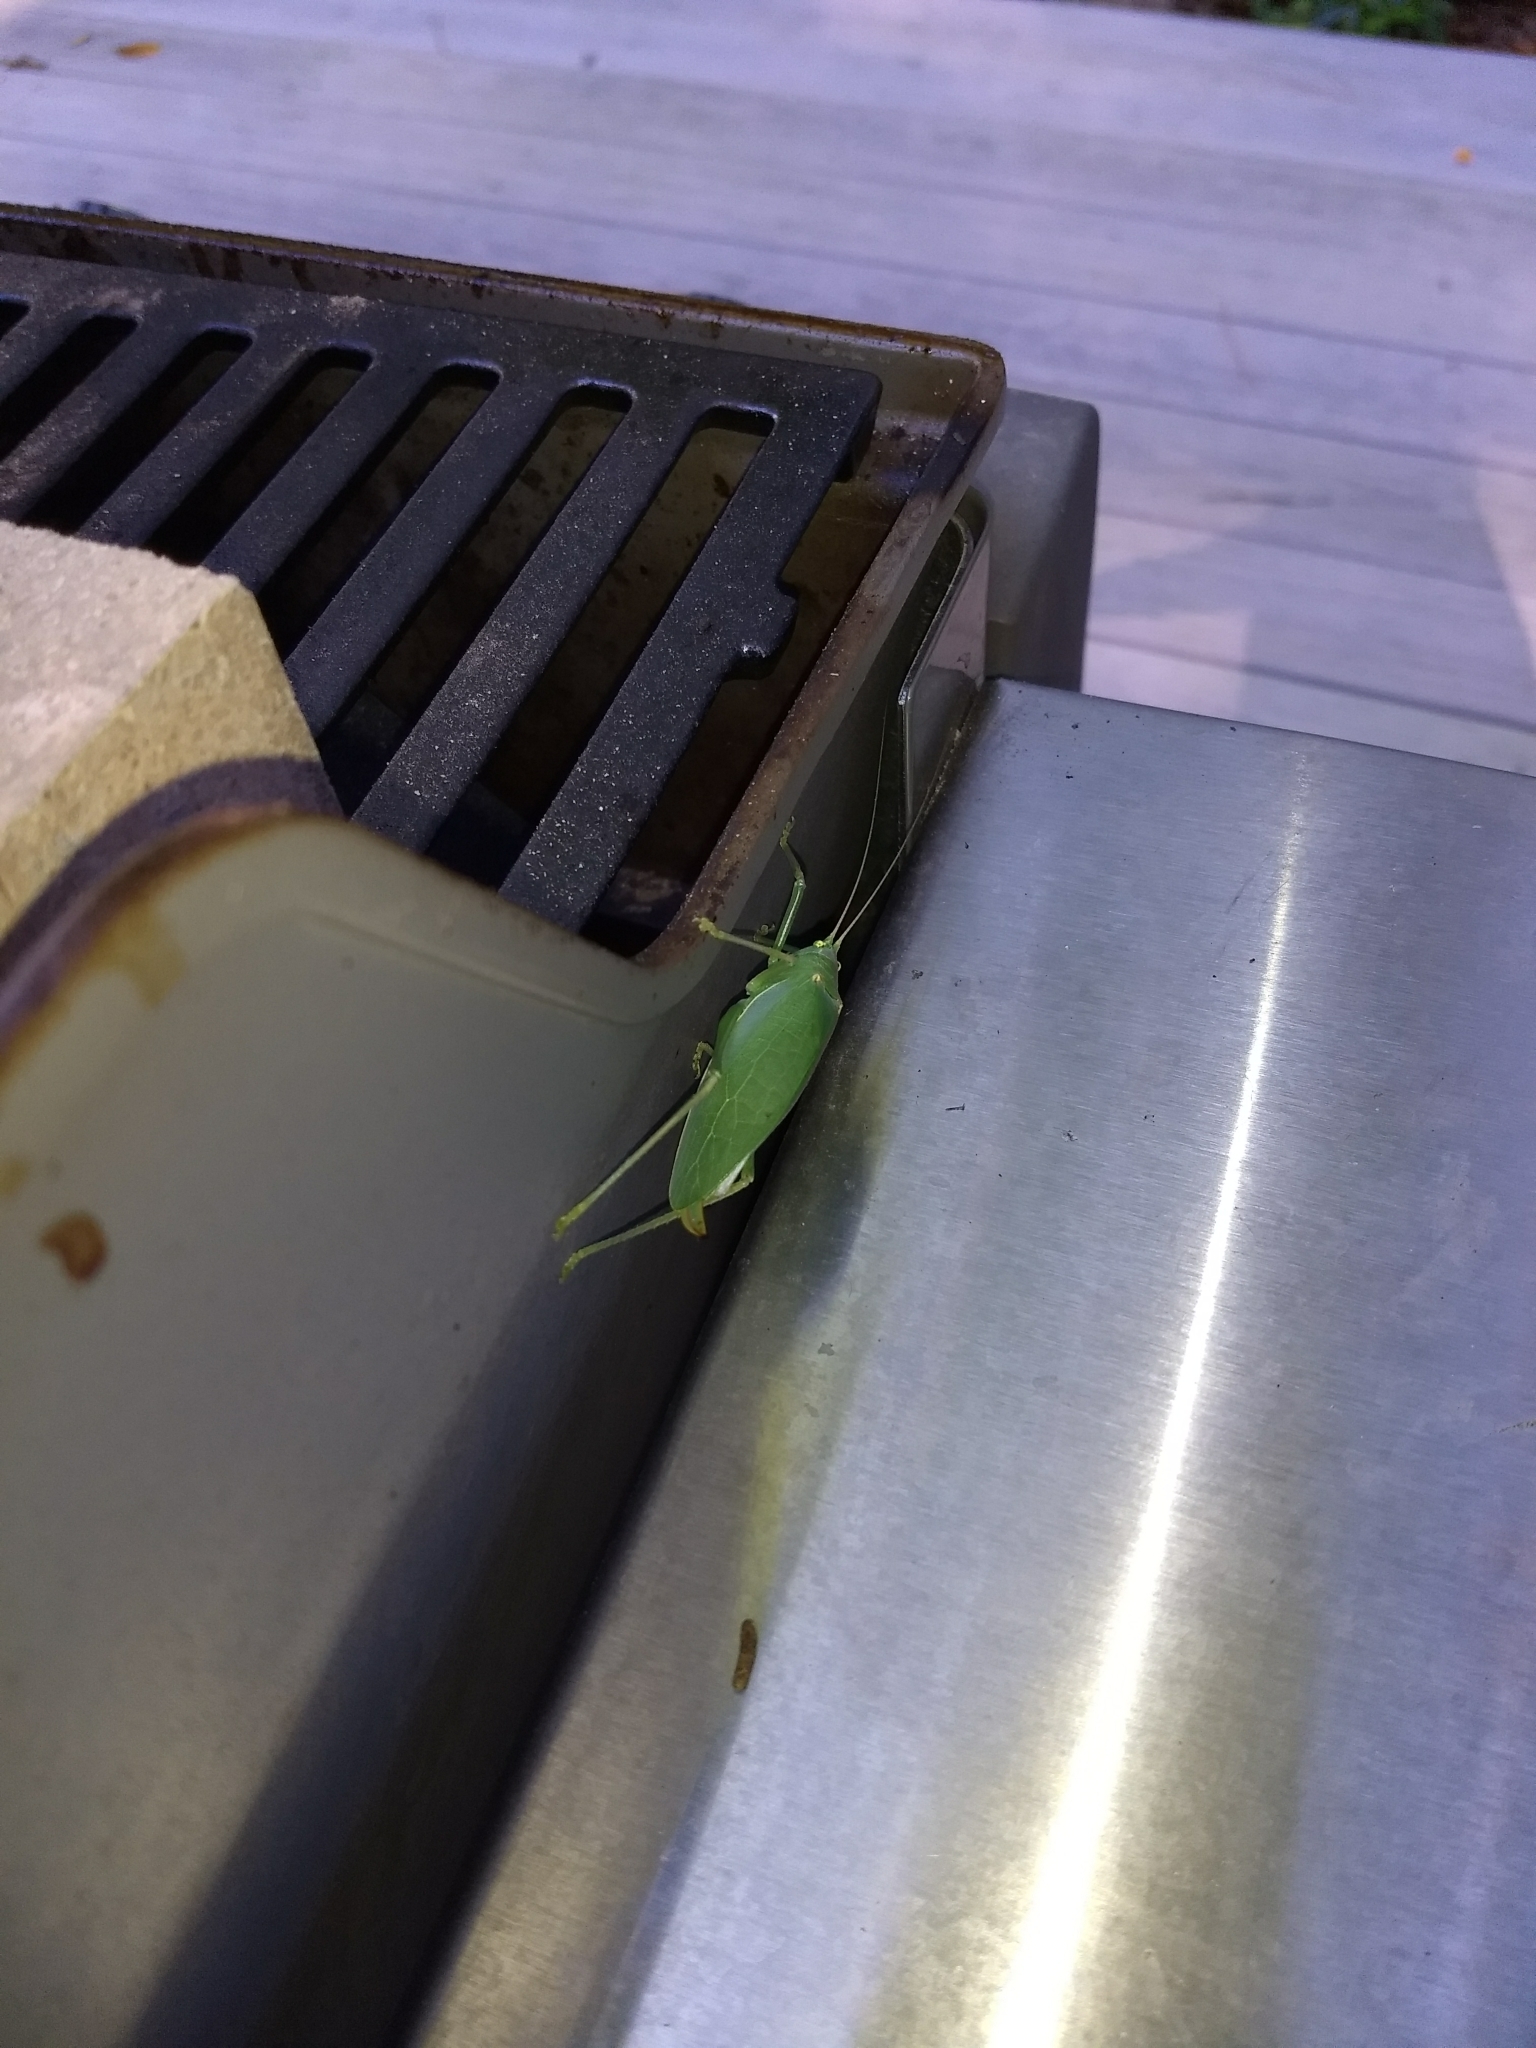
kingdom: Animalia
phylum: Arthropoda
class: Insecta
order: Orthoptera
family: Tettigoniidae
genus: Pterophylla
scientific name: Pterophylla camellifolia
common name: Common true katydid
